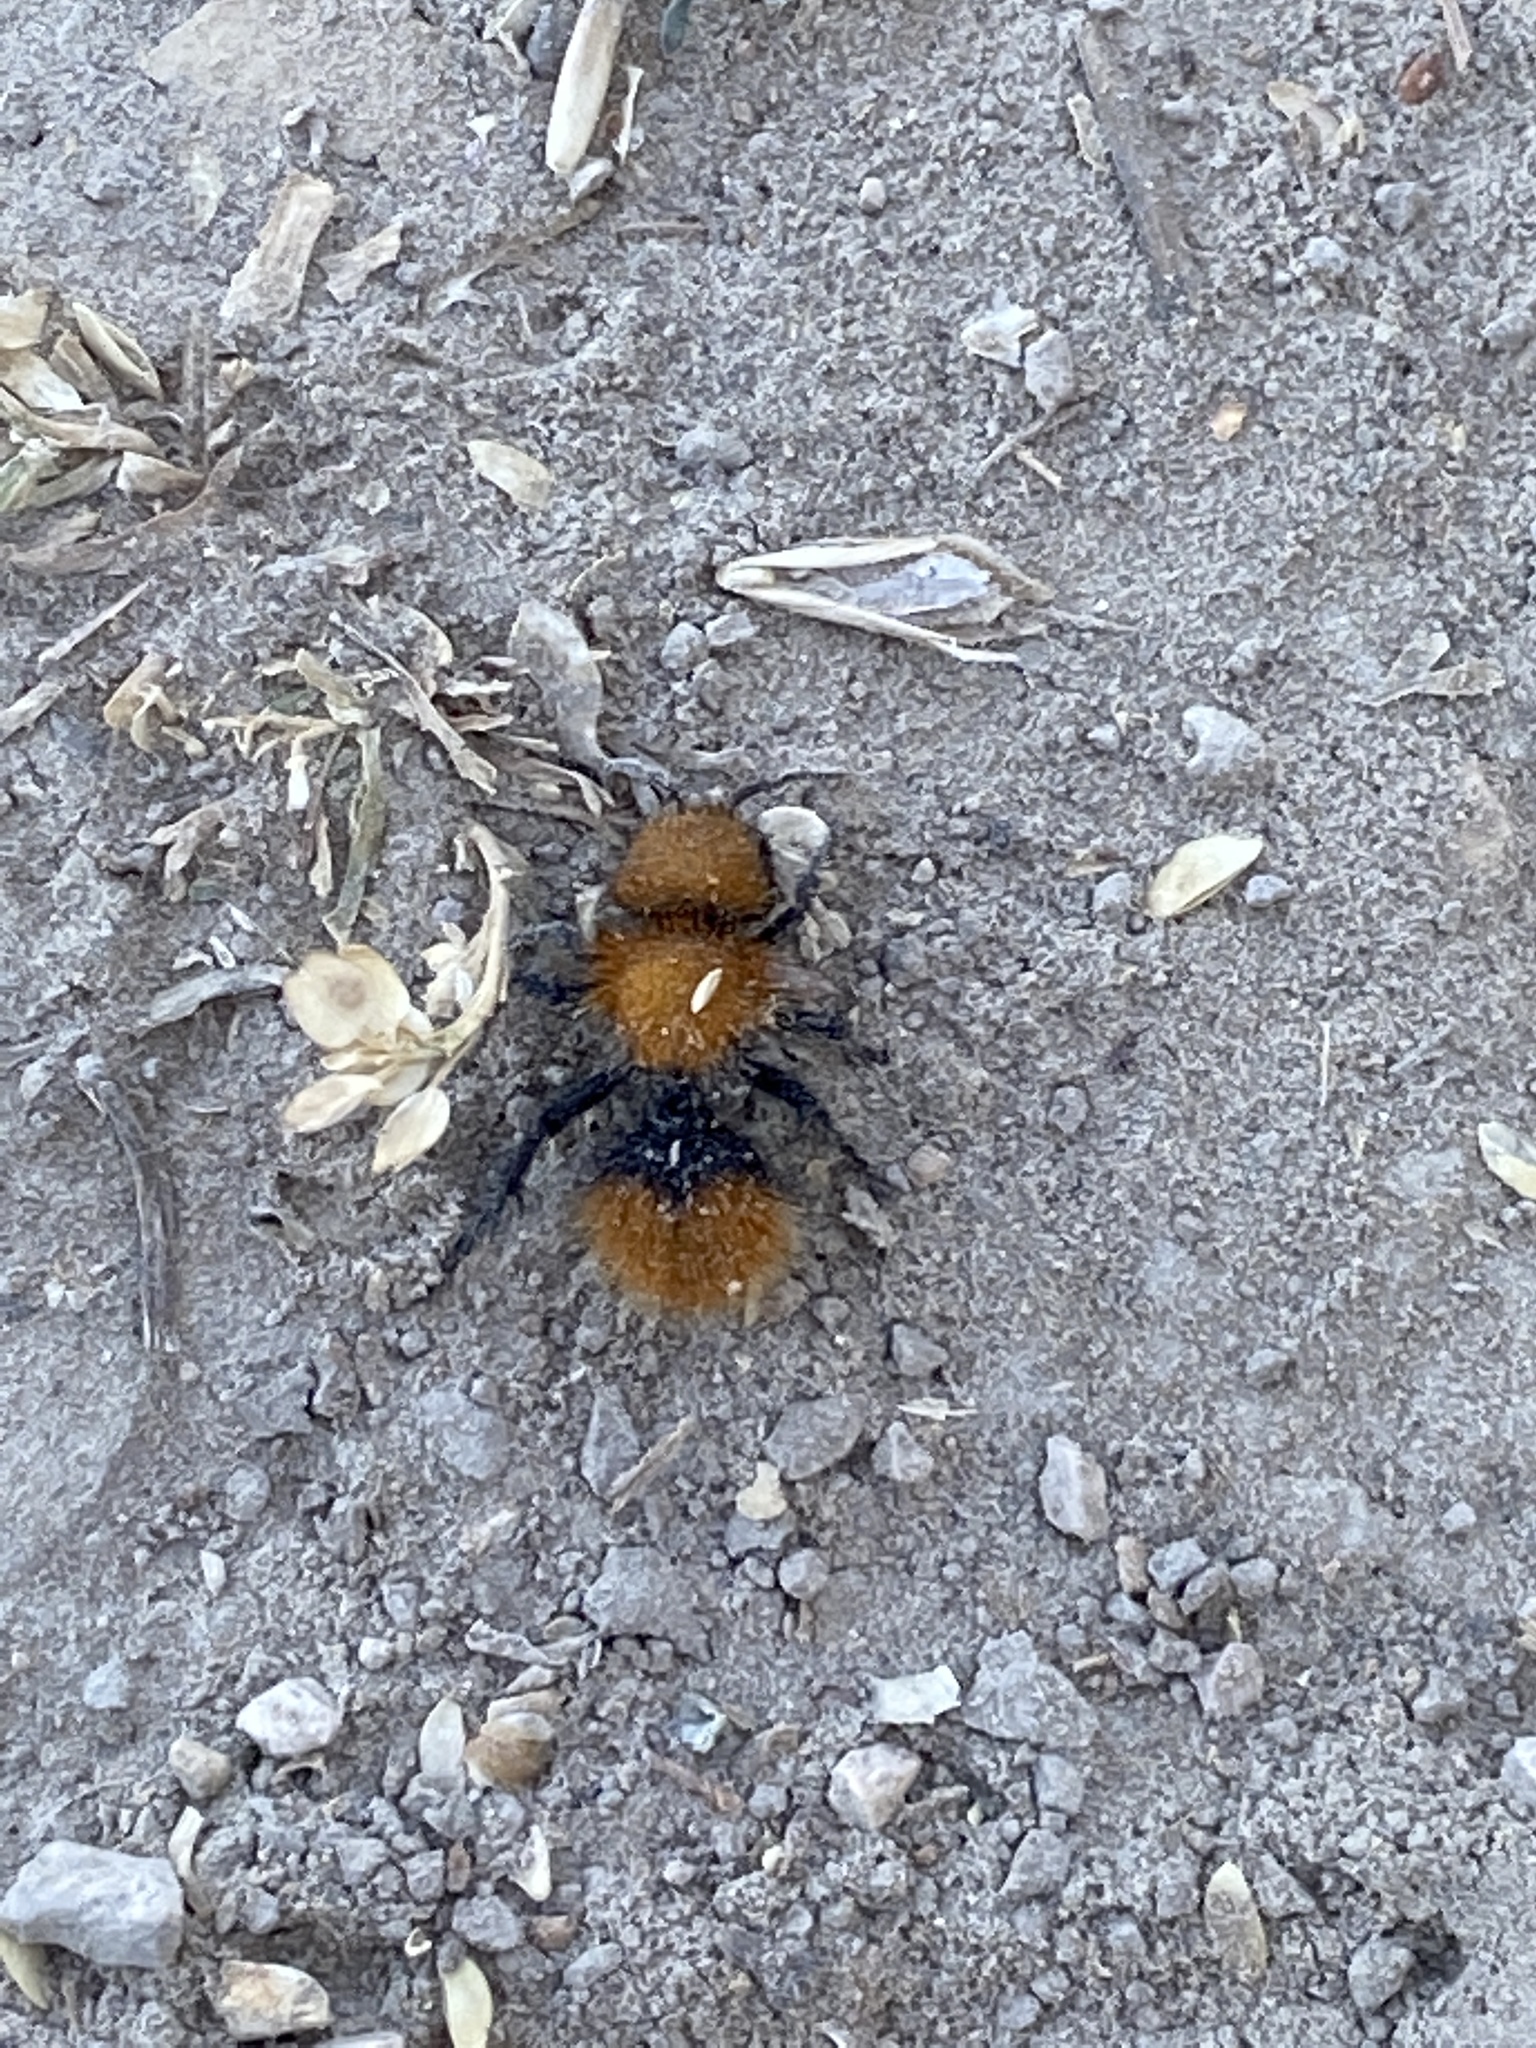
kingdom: Animalia
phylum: Arthropoda
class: Insecta
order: Hymenoptera
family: Mutillidae
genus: Dasymutilla
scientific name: Dasymutilla
